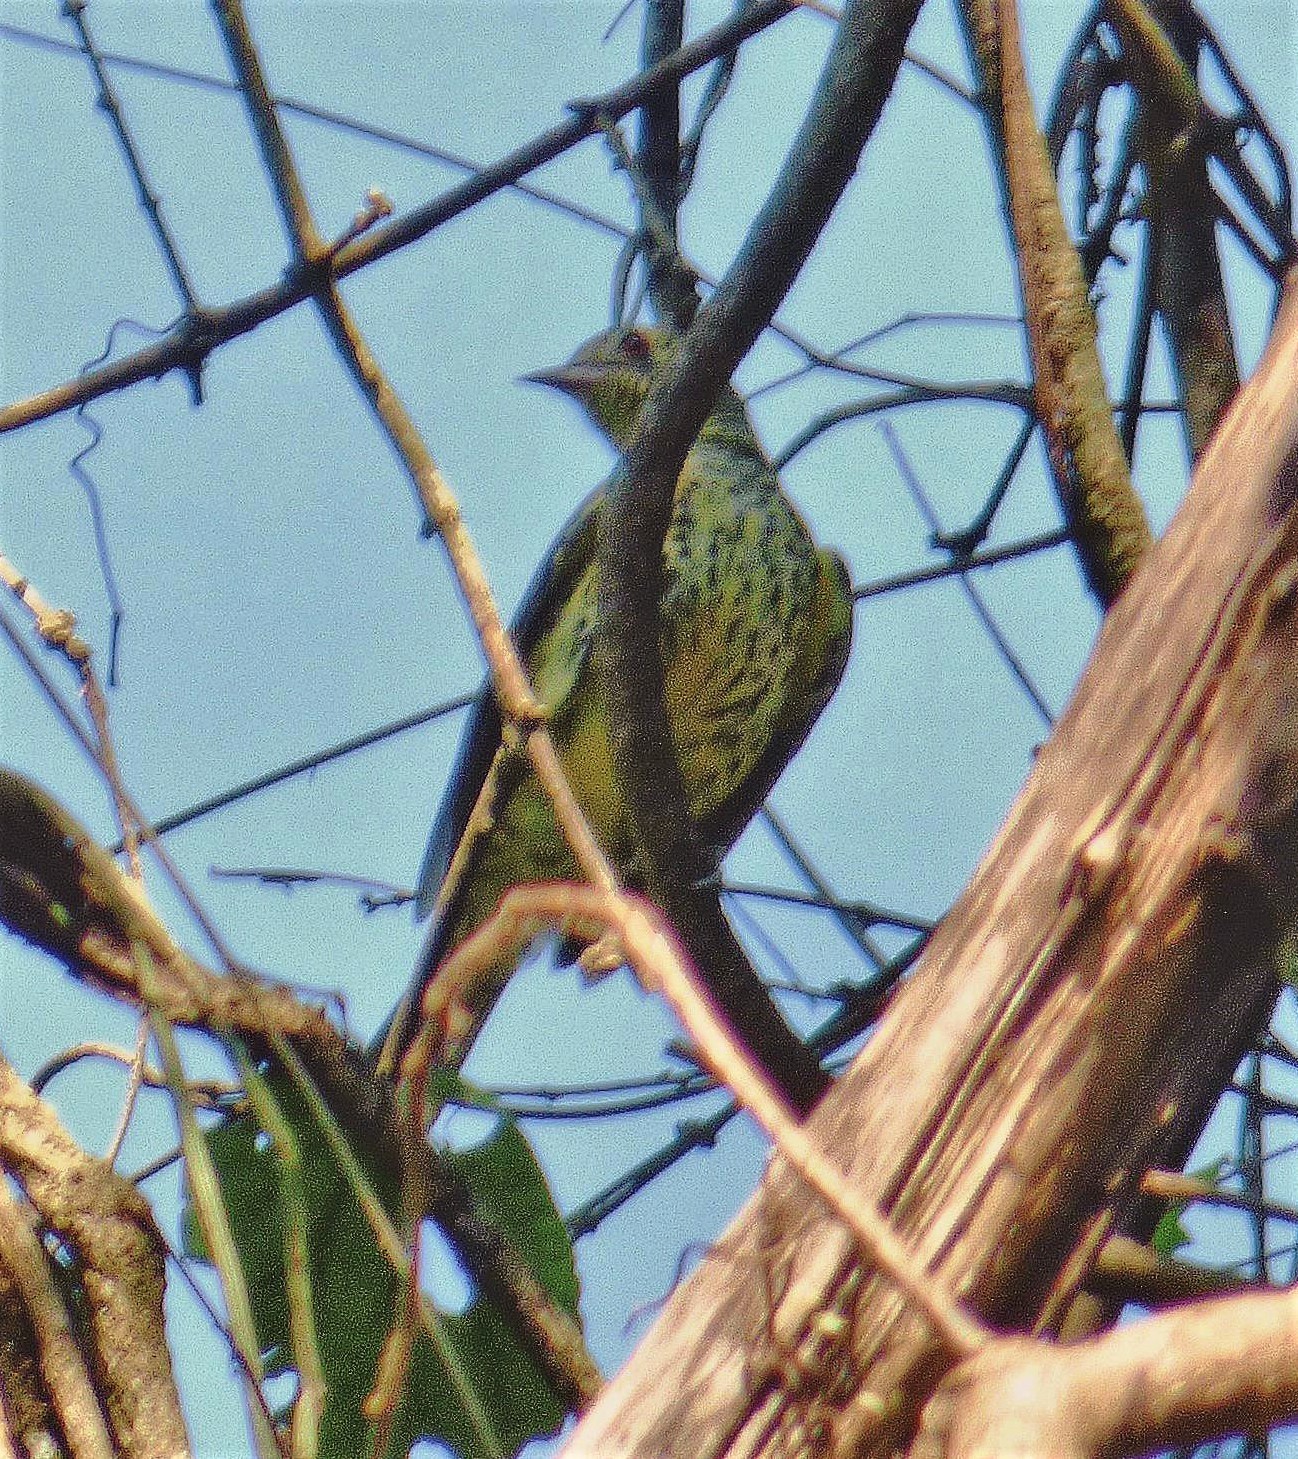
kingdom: Animalia
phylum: Chordata
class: Aves
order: Passeriformes
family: Cotingidae
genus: Oxyruncus
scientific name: Oxyruncus cristatus
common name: Sharpbill
